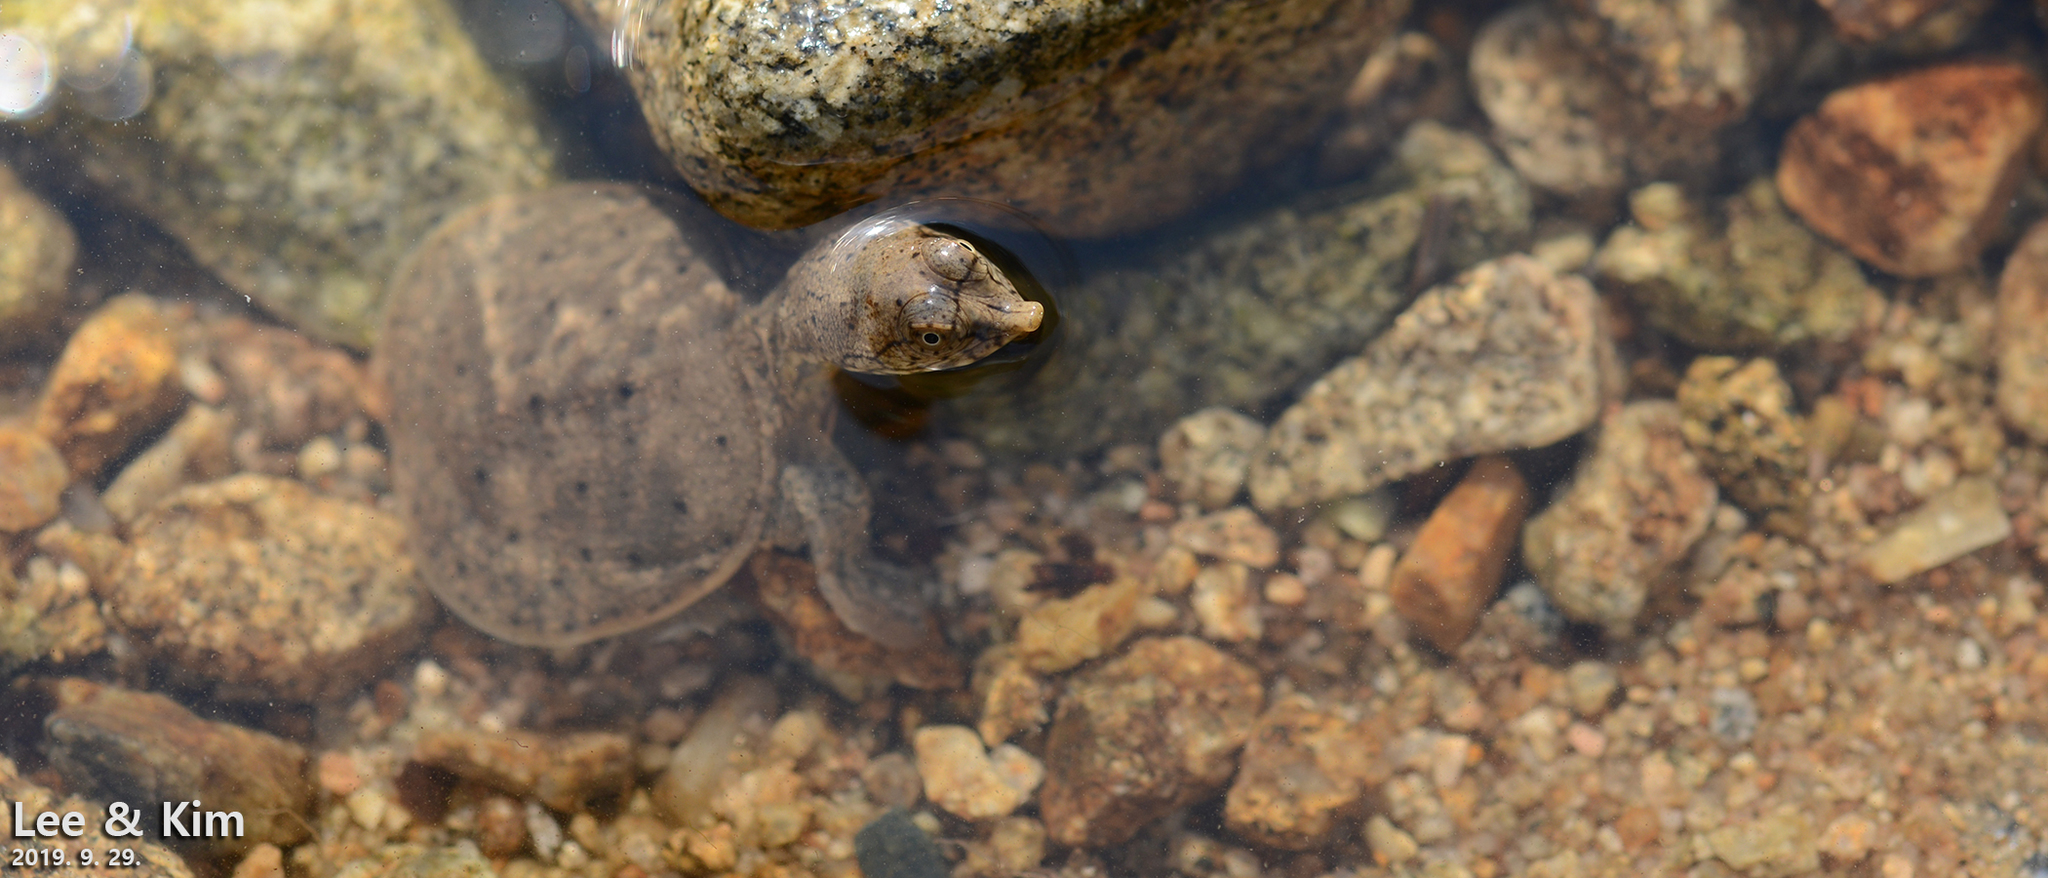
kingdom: Animalia
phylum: Chordata
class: Testudines
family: Trionychidae
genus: Pelodiscus
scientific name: Pelodiscus maackii
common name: Northern chinese softshell turtle
